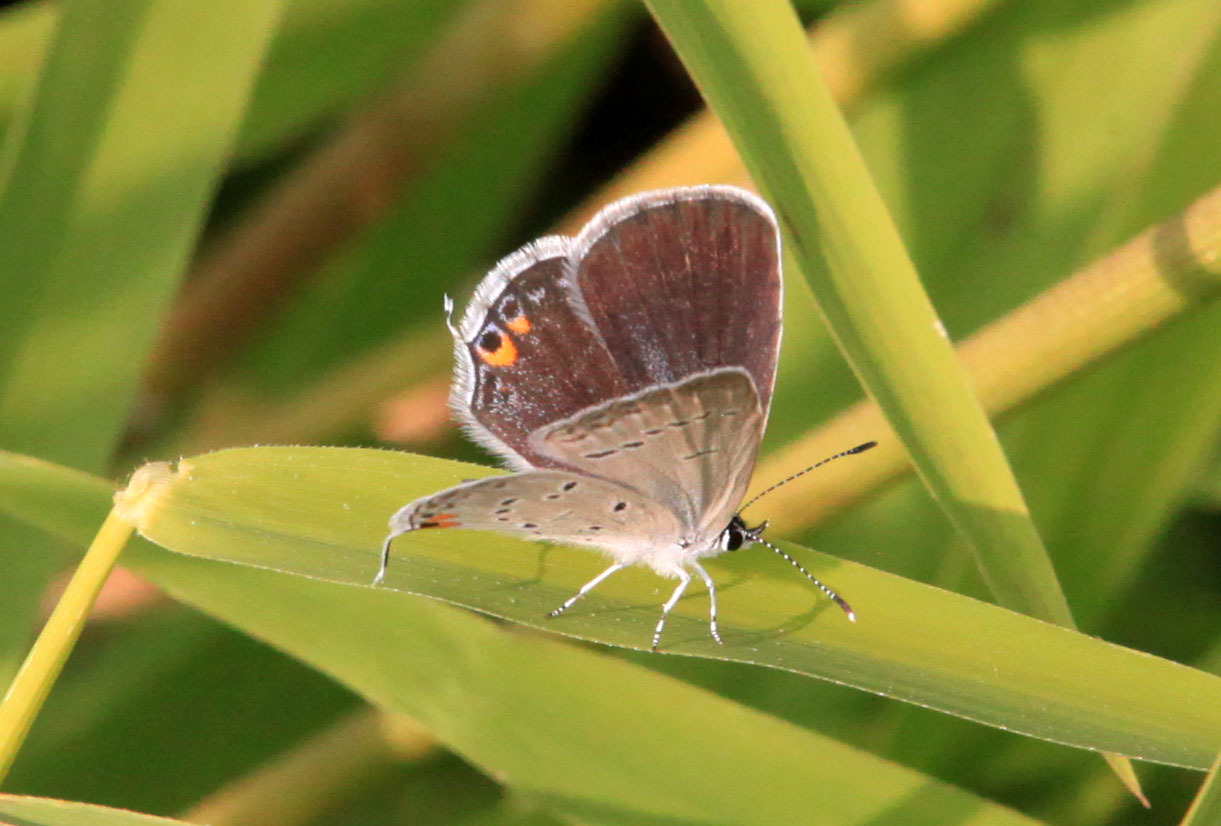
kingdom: Animalia
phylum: Arthropoda
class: Insecta
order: Lepidoptera
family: Lycaenidae
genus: Elkalyce
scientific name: Elkalyce comyntas
